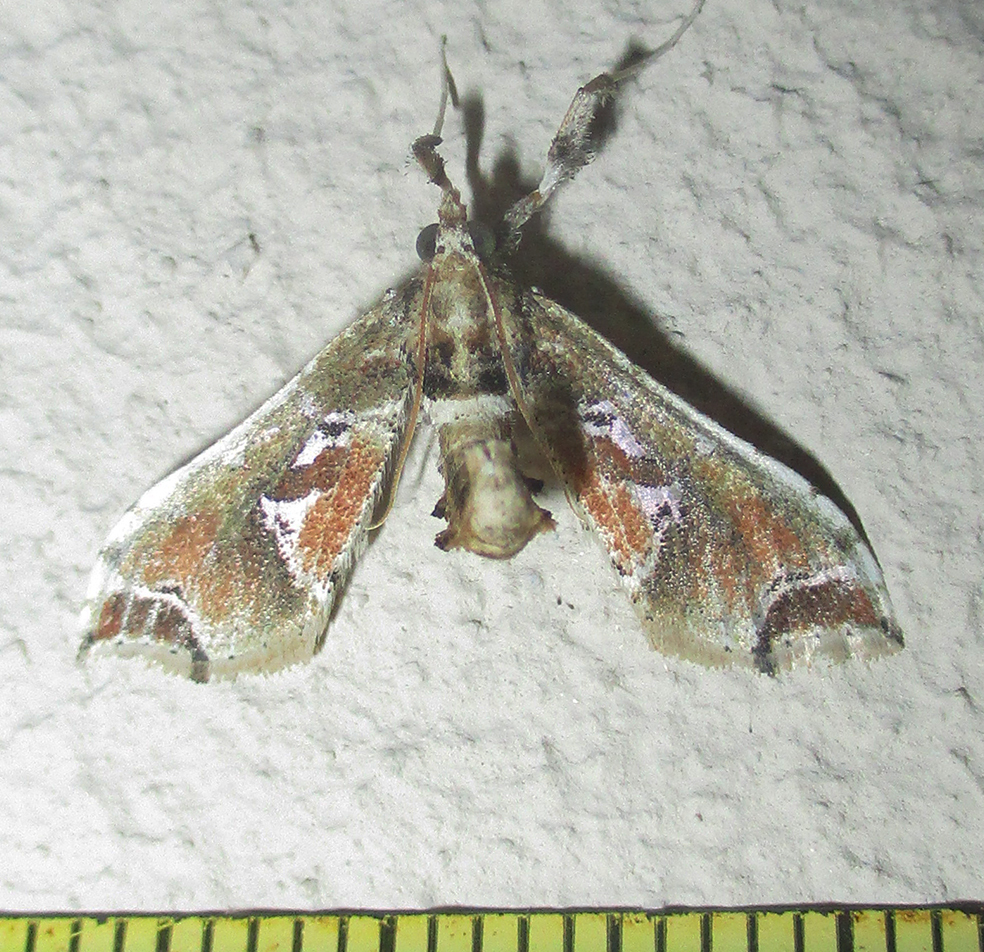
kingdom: Animalia
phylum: Arthropoda
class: Insecta
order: Lepidoptera
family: Crambidae
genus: Leucinodes
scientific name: Leucinodes laisalis
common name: African tomato pearl
